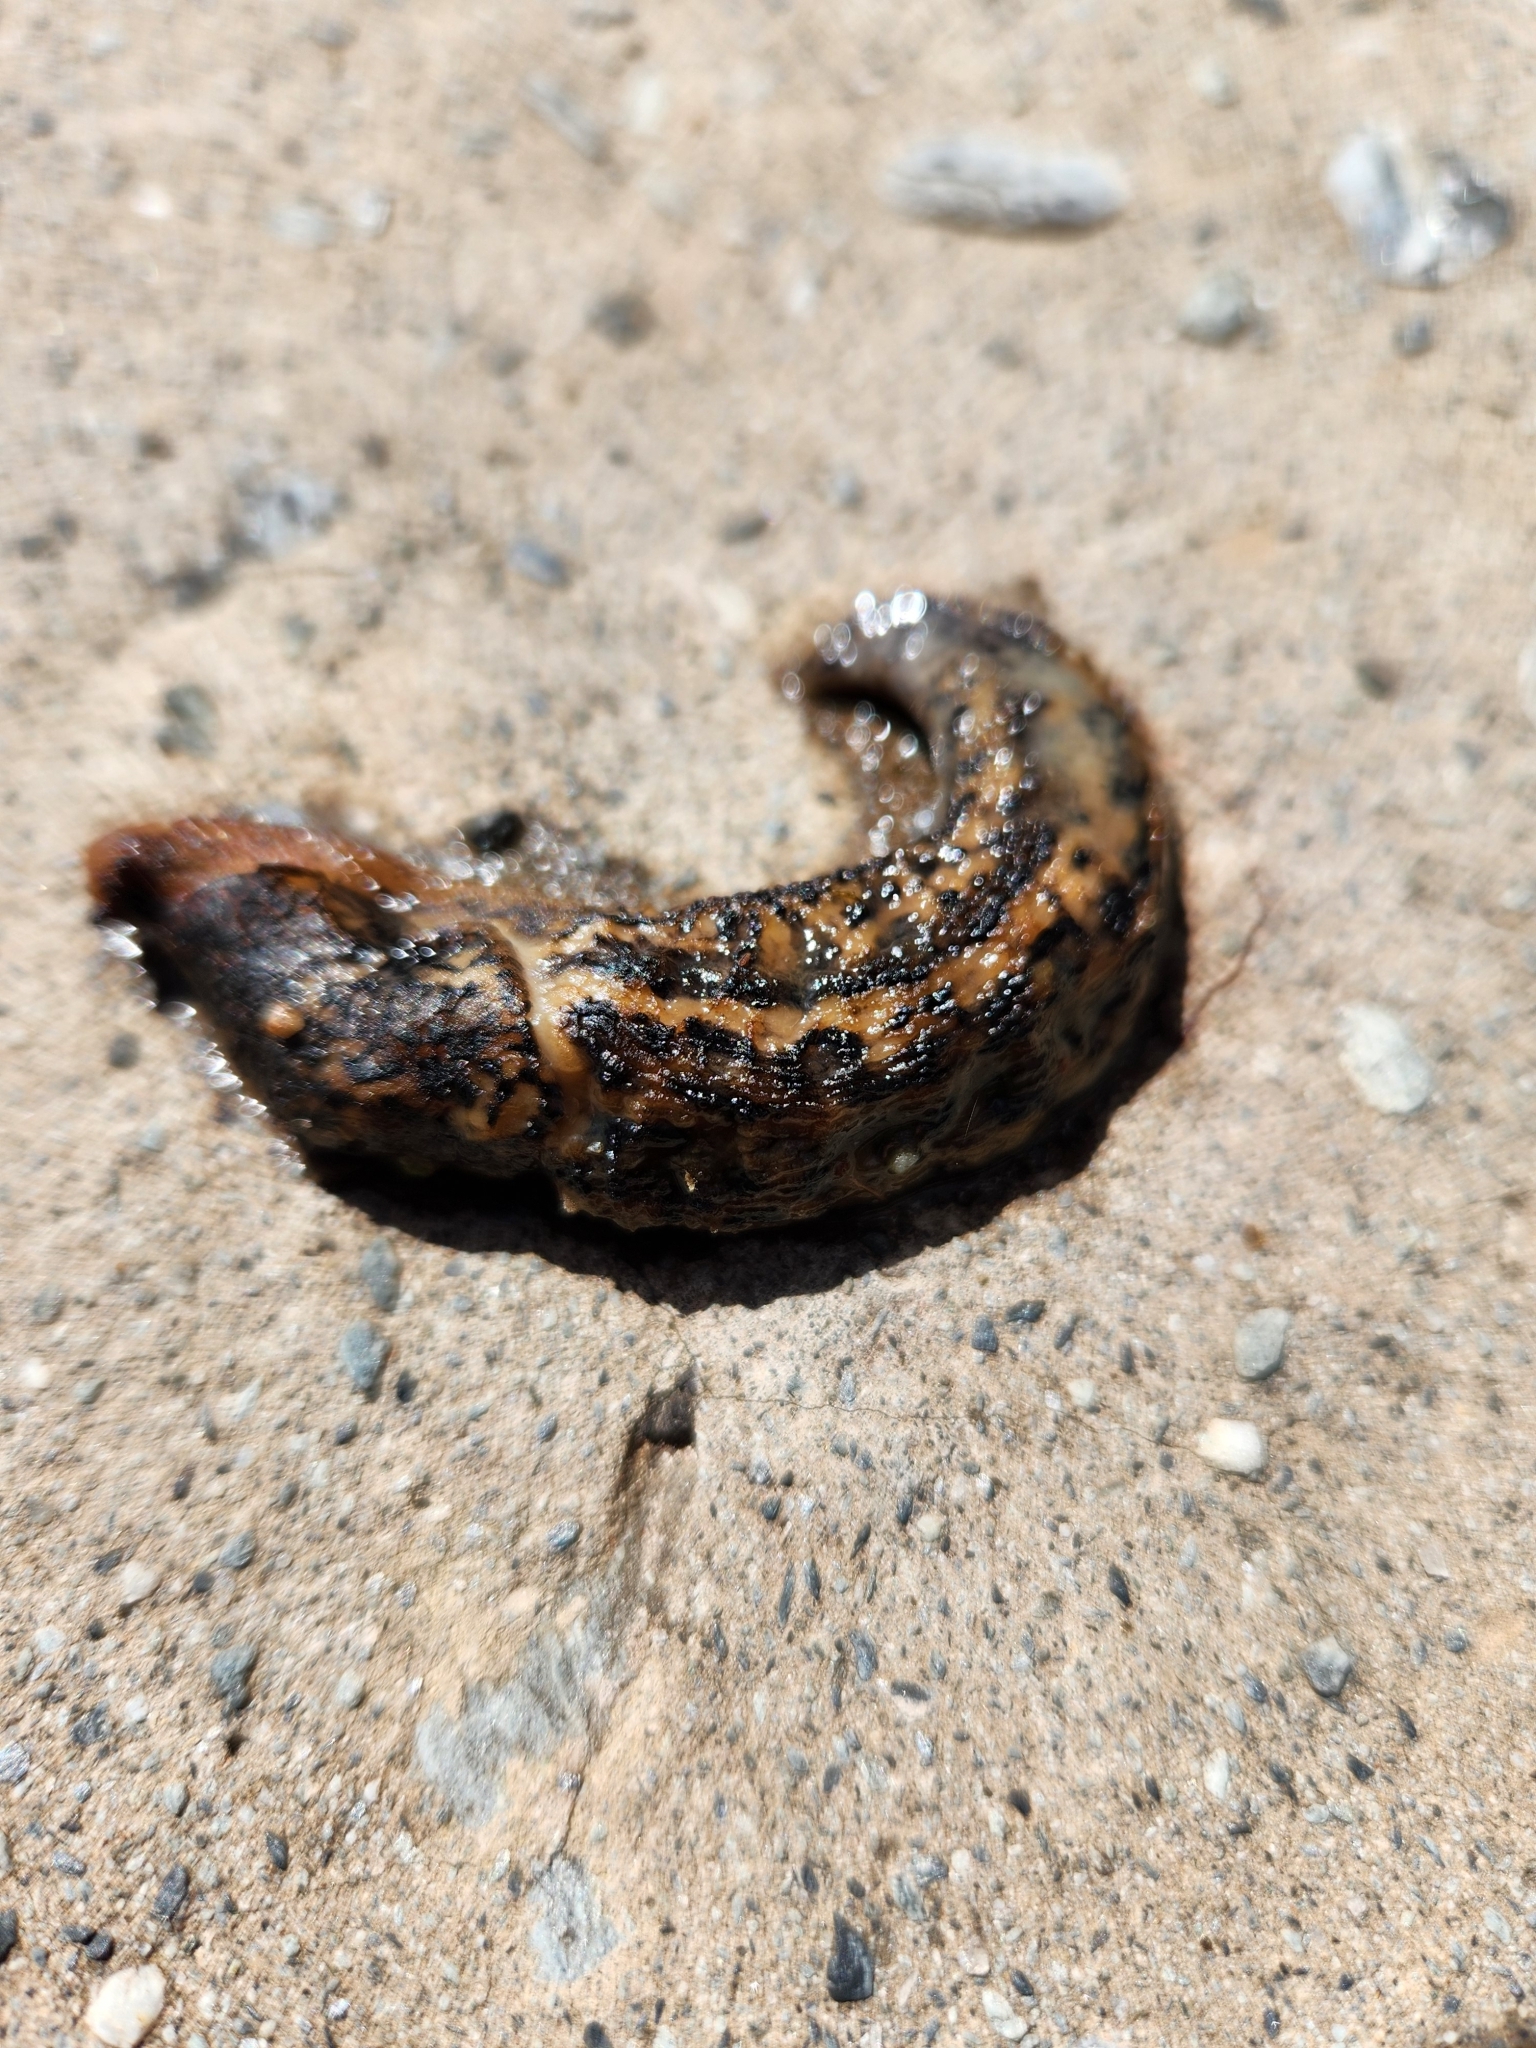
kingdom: Animalia
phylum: Mollusca
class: Gastropoda
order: Stylommatophora
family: Limacidae
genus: Limax
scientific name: Limax maximus
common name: Great grey slug
